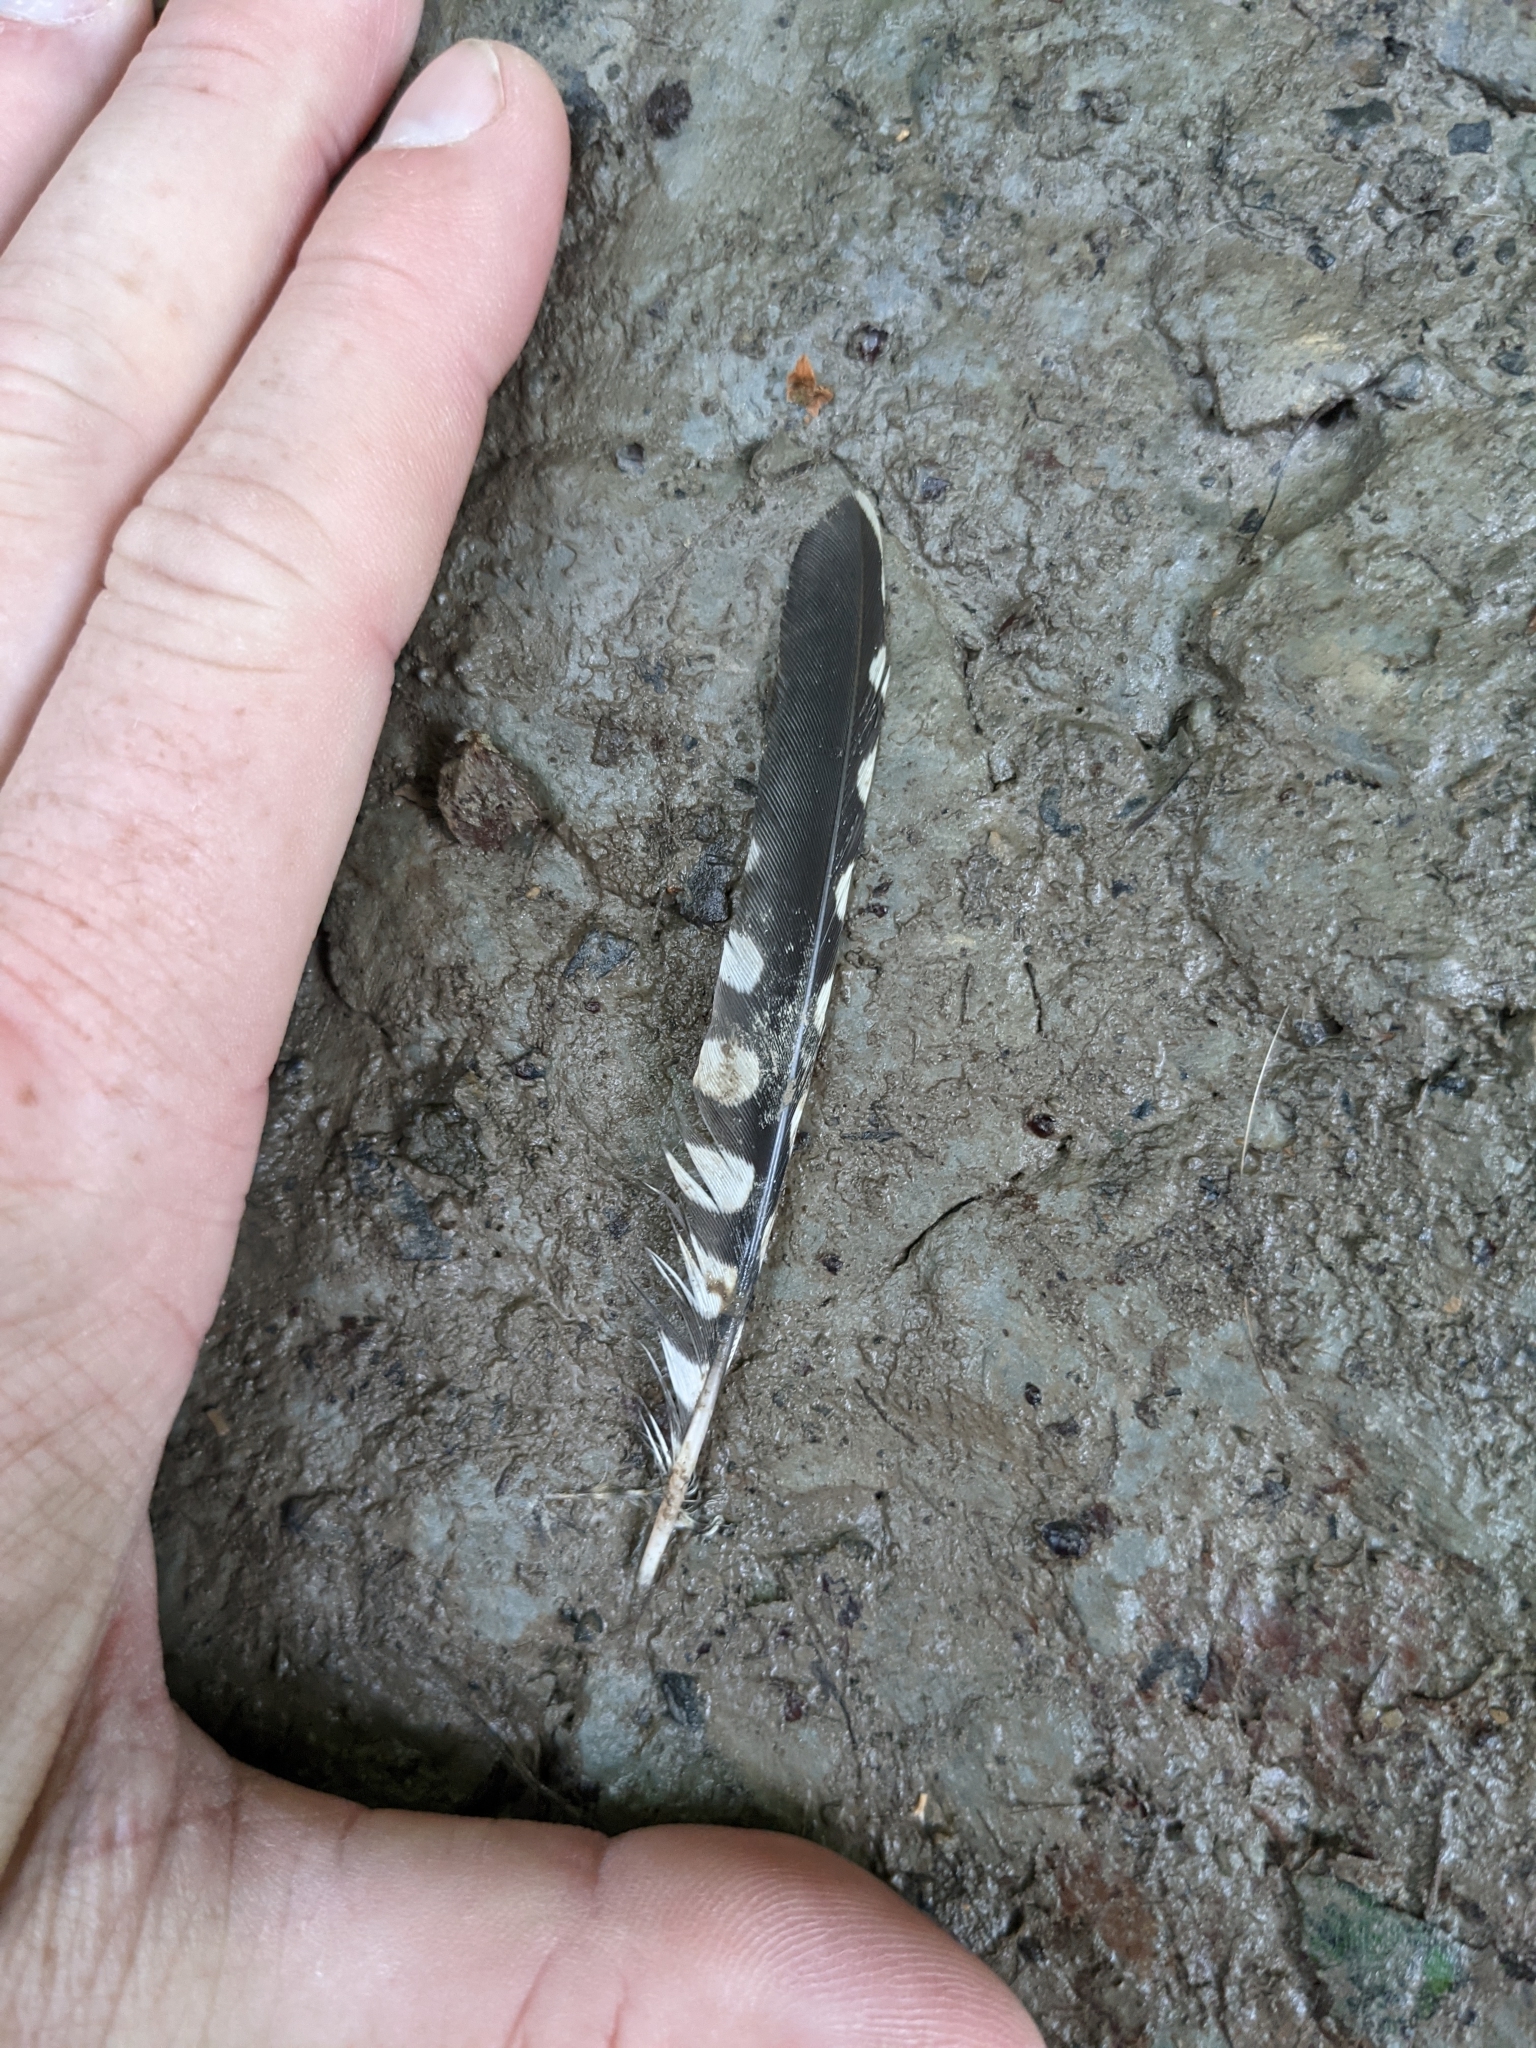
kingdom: Animalia
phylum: Chordata
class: Aves
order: Piciformes
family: Picidae
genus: Sphyrapicus
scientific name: Sphyrapicus varius
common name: Yellow-bellied sapsucker
